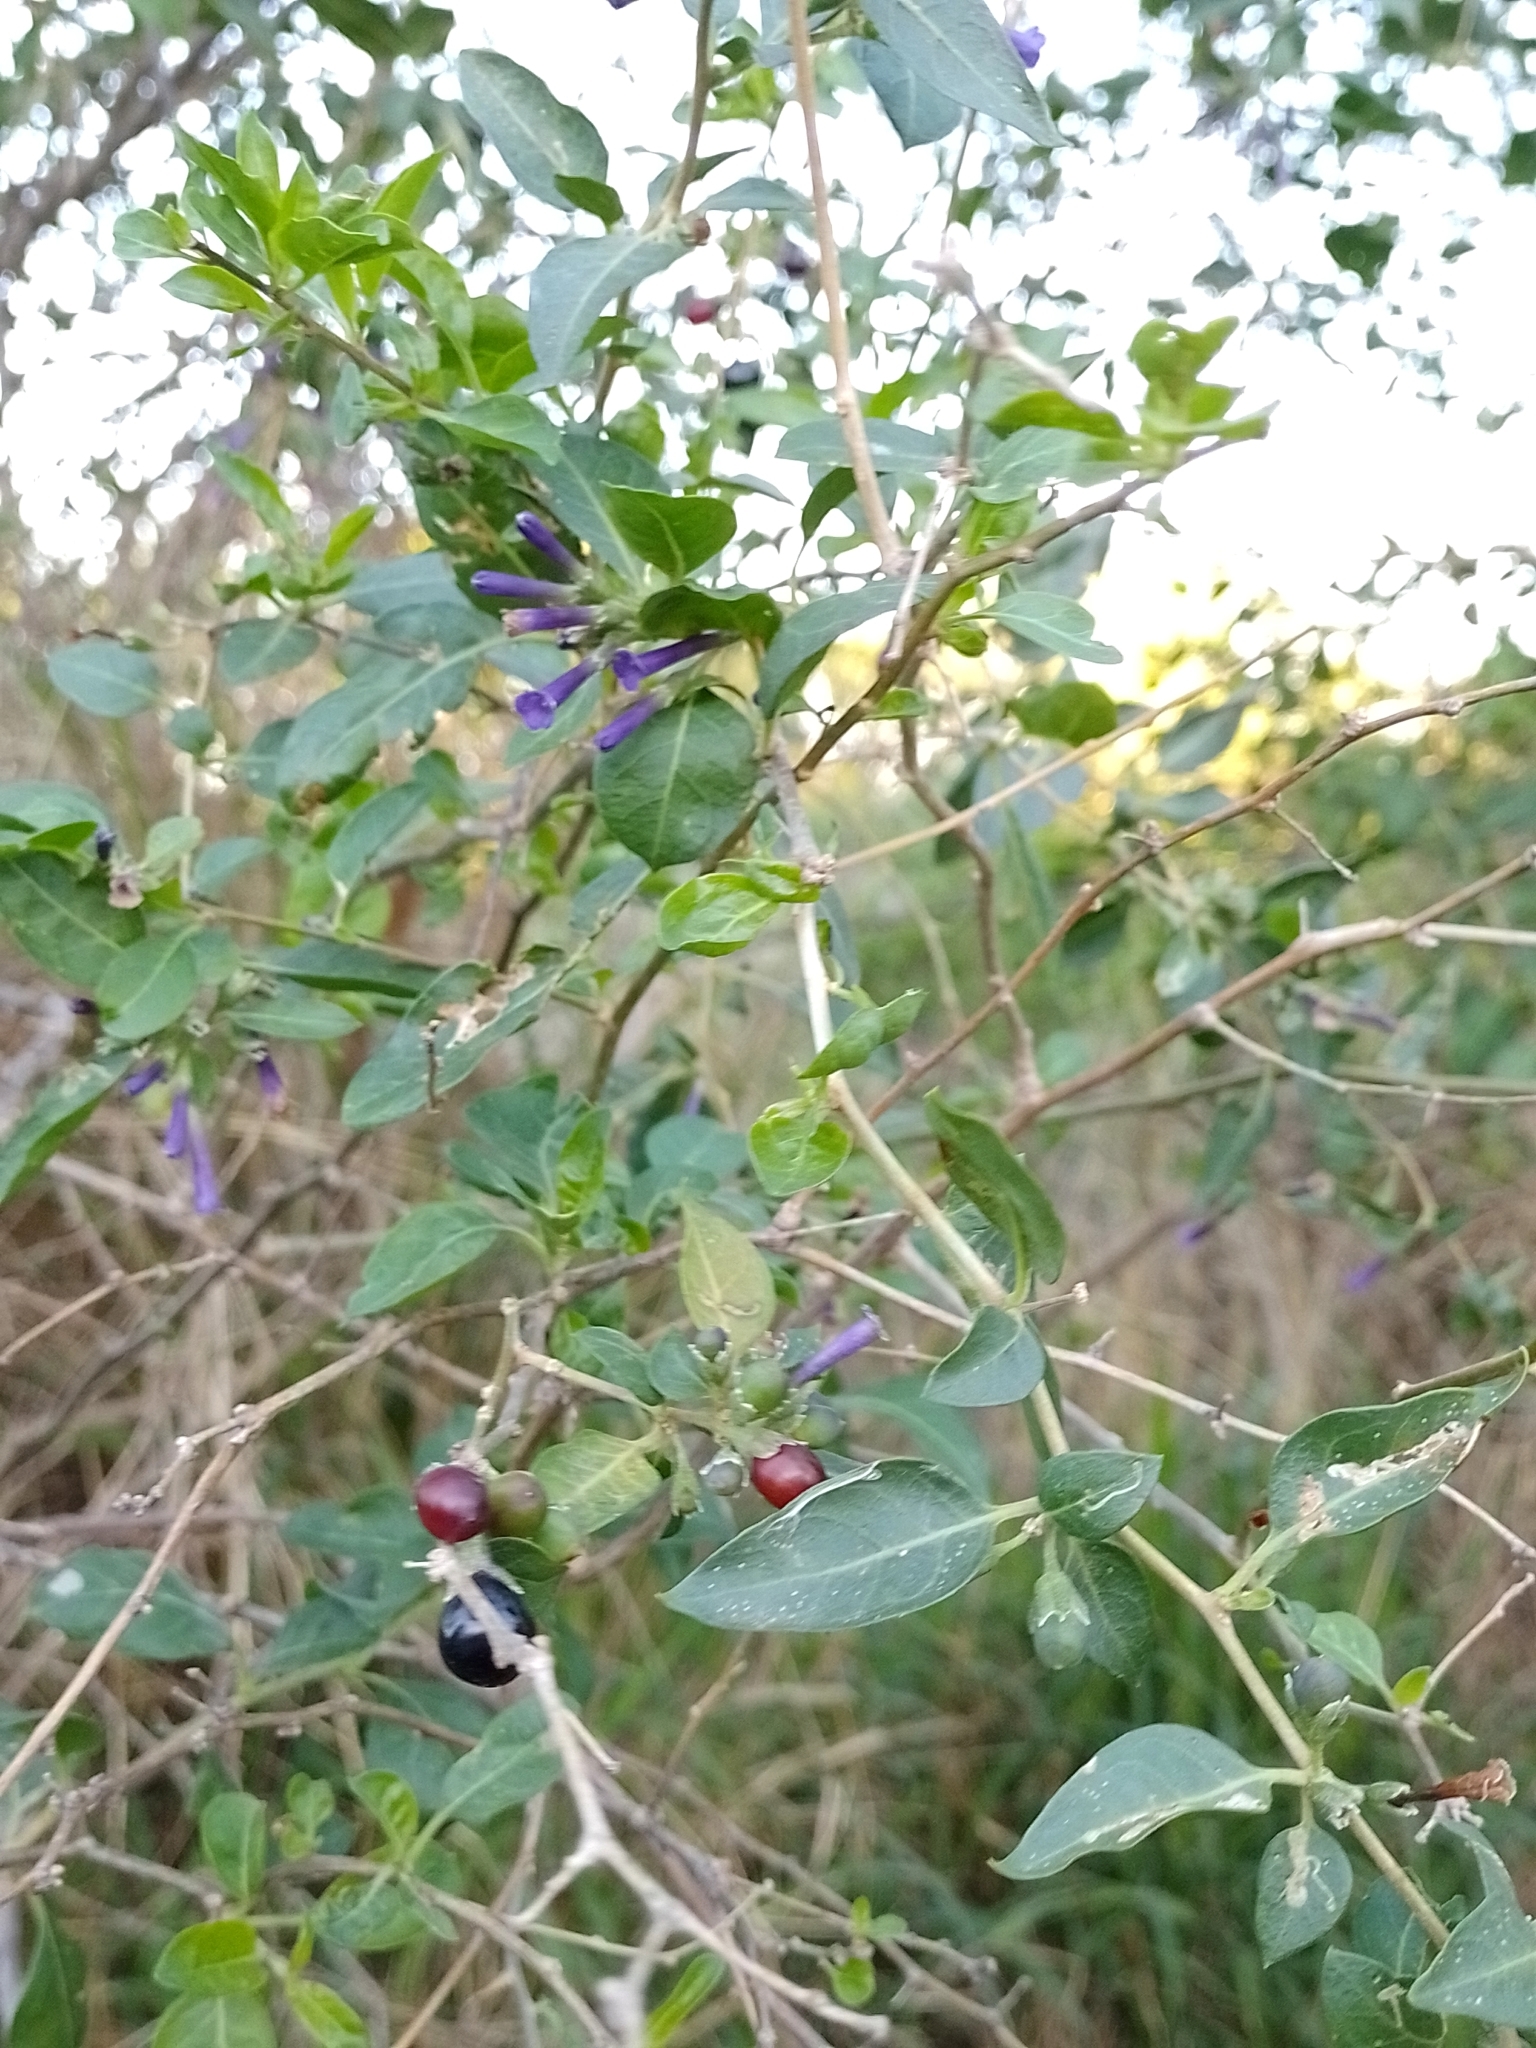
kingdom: Plantae
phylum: Tracheophyta
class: Magnoliopsida
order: Solanales
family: Solanaceae
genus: Lycium
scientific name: Lycium cestroides
